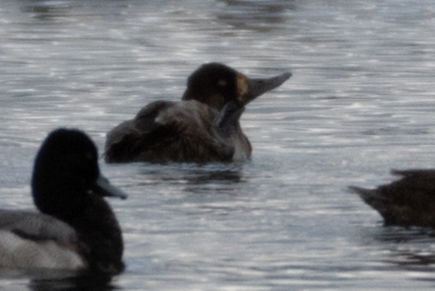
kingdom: Animalia
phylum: Chordata
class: Aves
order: Anseriformes
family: Anatidae
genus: Aythya
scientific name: Aythya affinis
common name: Lesser scaup
